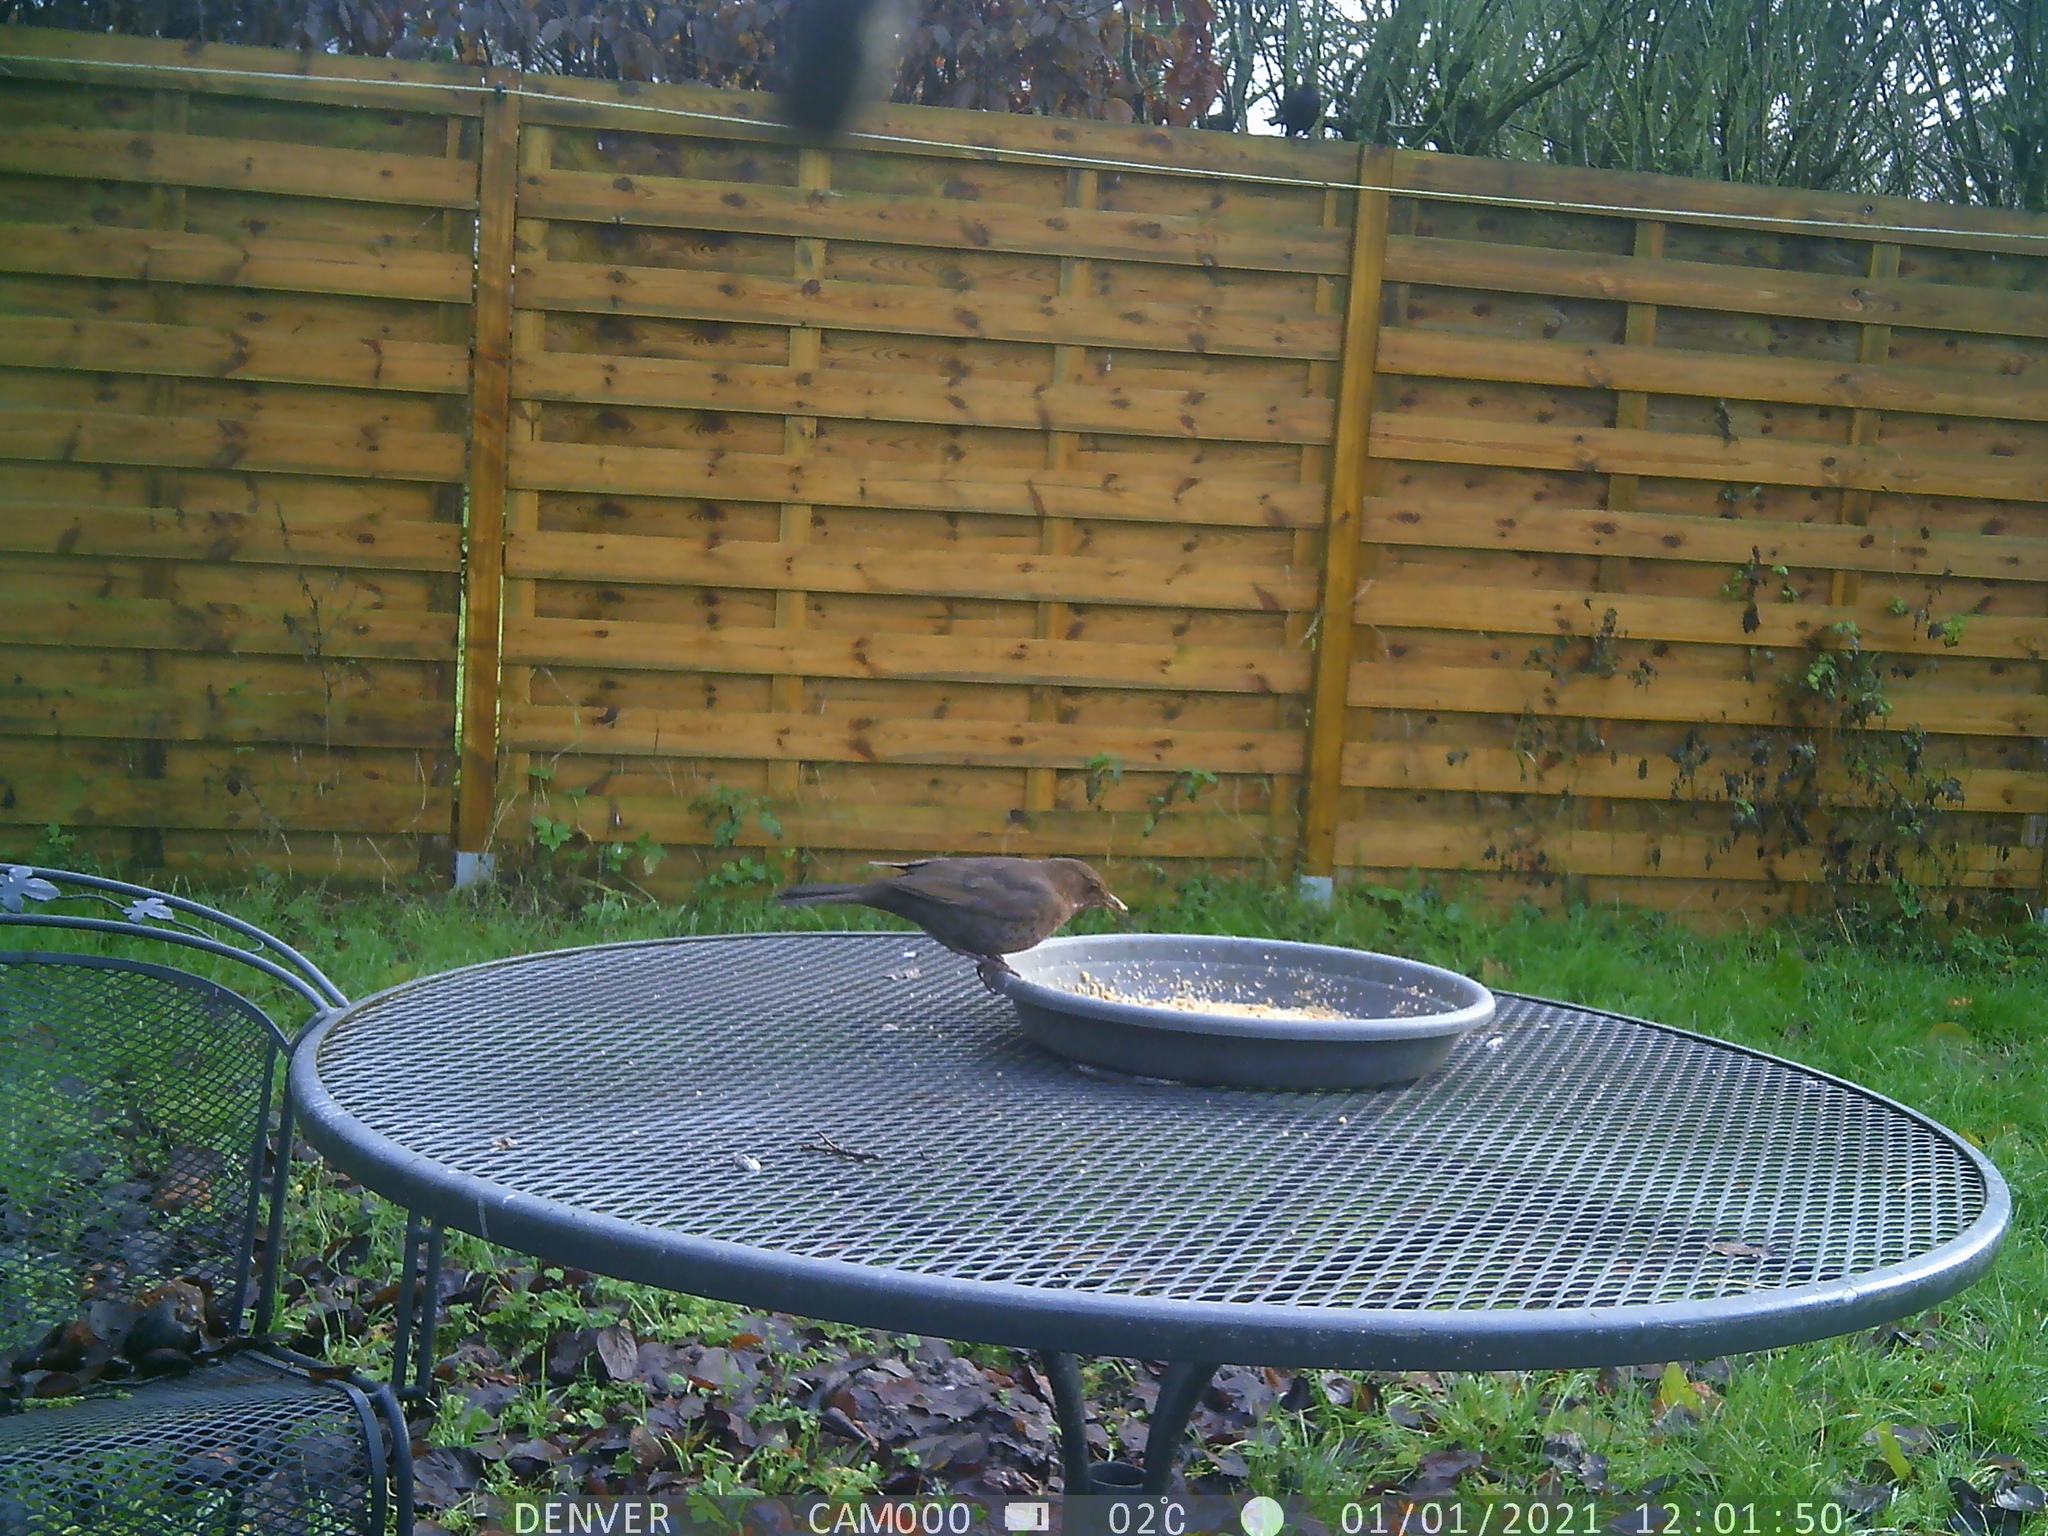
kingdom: Animalia
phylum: Chordata
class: Aves
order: Passeriformes
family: Turdidae
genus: Turdus
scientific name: Turdus merula
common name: Common blackbird
